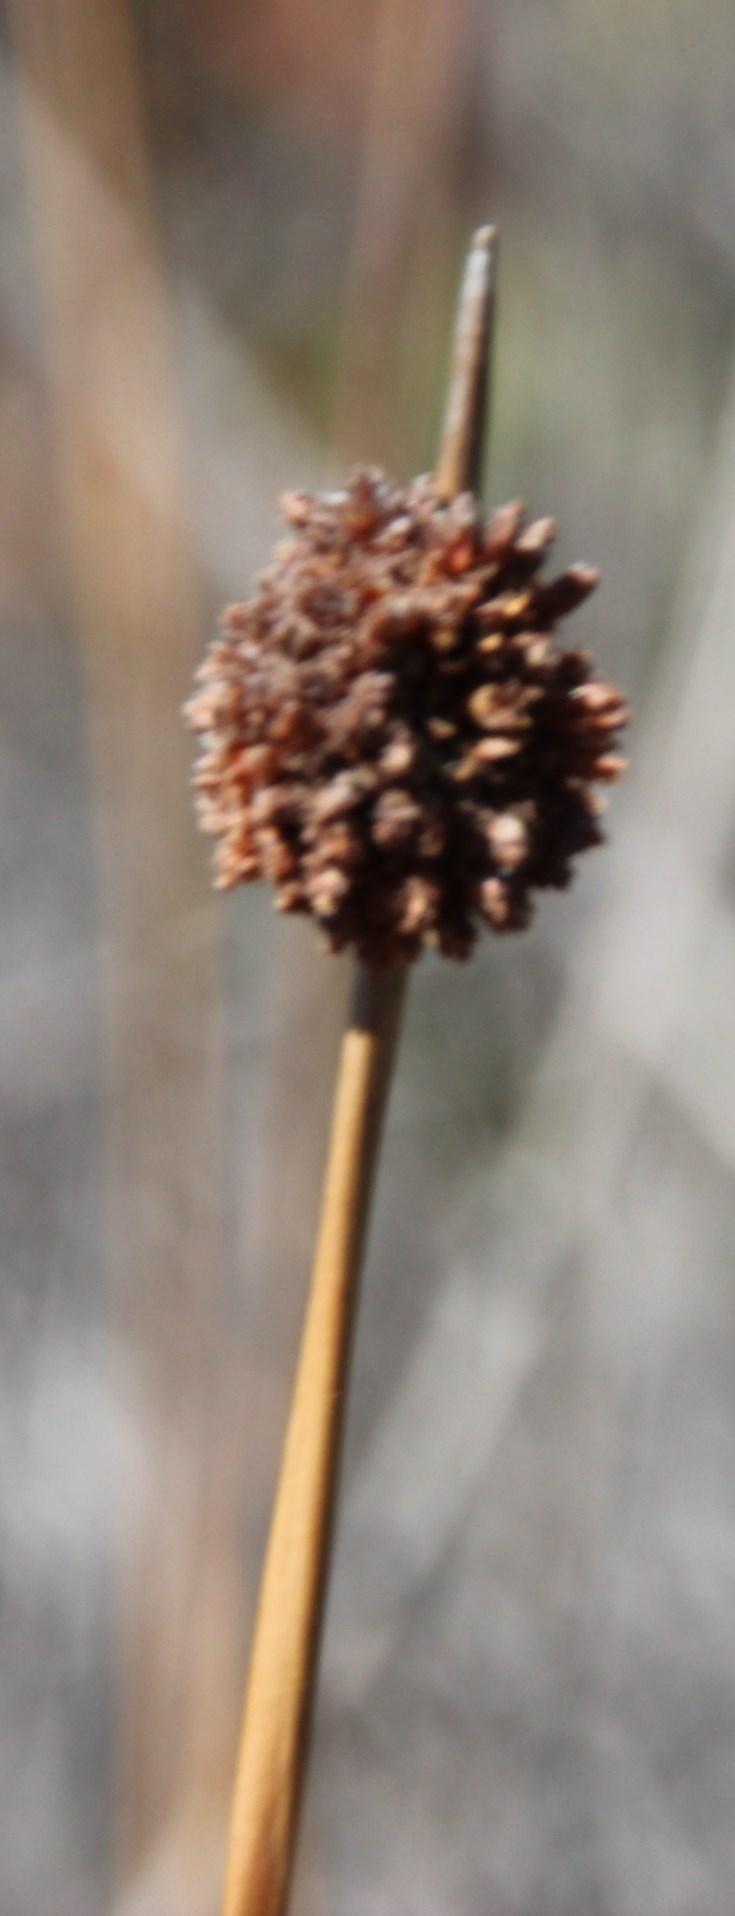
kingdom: Plantae
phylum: Tracheophyta
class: Liliopsida
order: Poales
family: Cyperaceae
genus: Ficinia
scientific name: Ficinia nodosa
